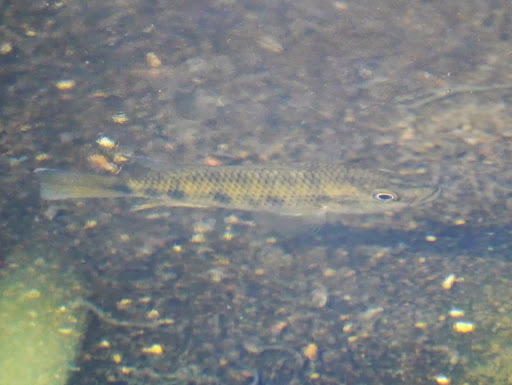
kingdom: Animalia
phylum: Chordata
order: Perciformes
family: Cichlidae
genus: Hemichromis
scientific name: Hemichromis fasciatus
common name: Banded jewelfish
